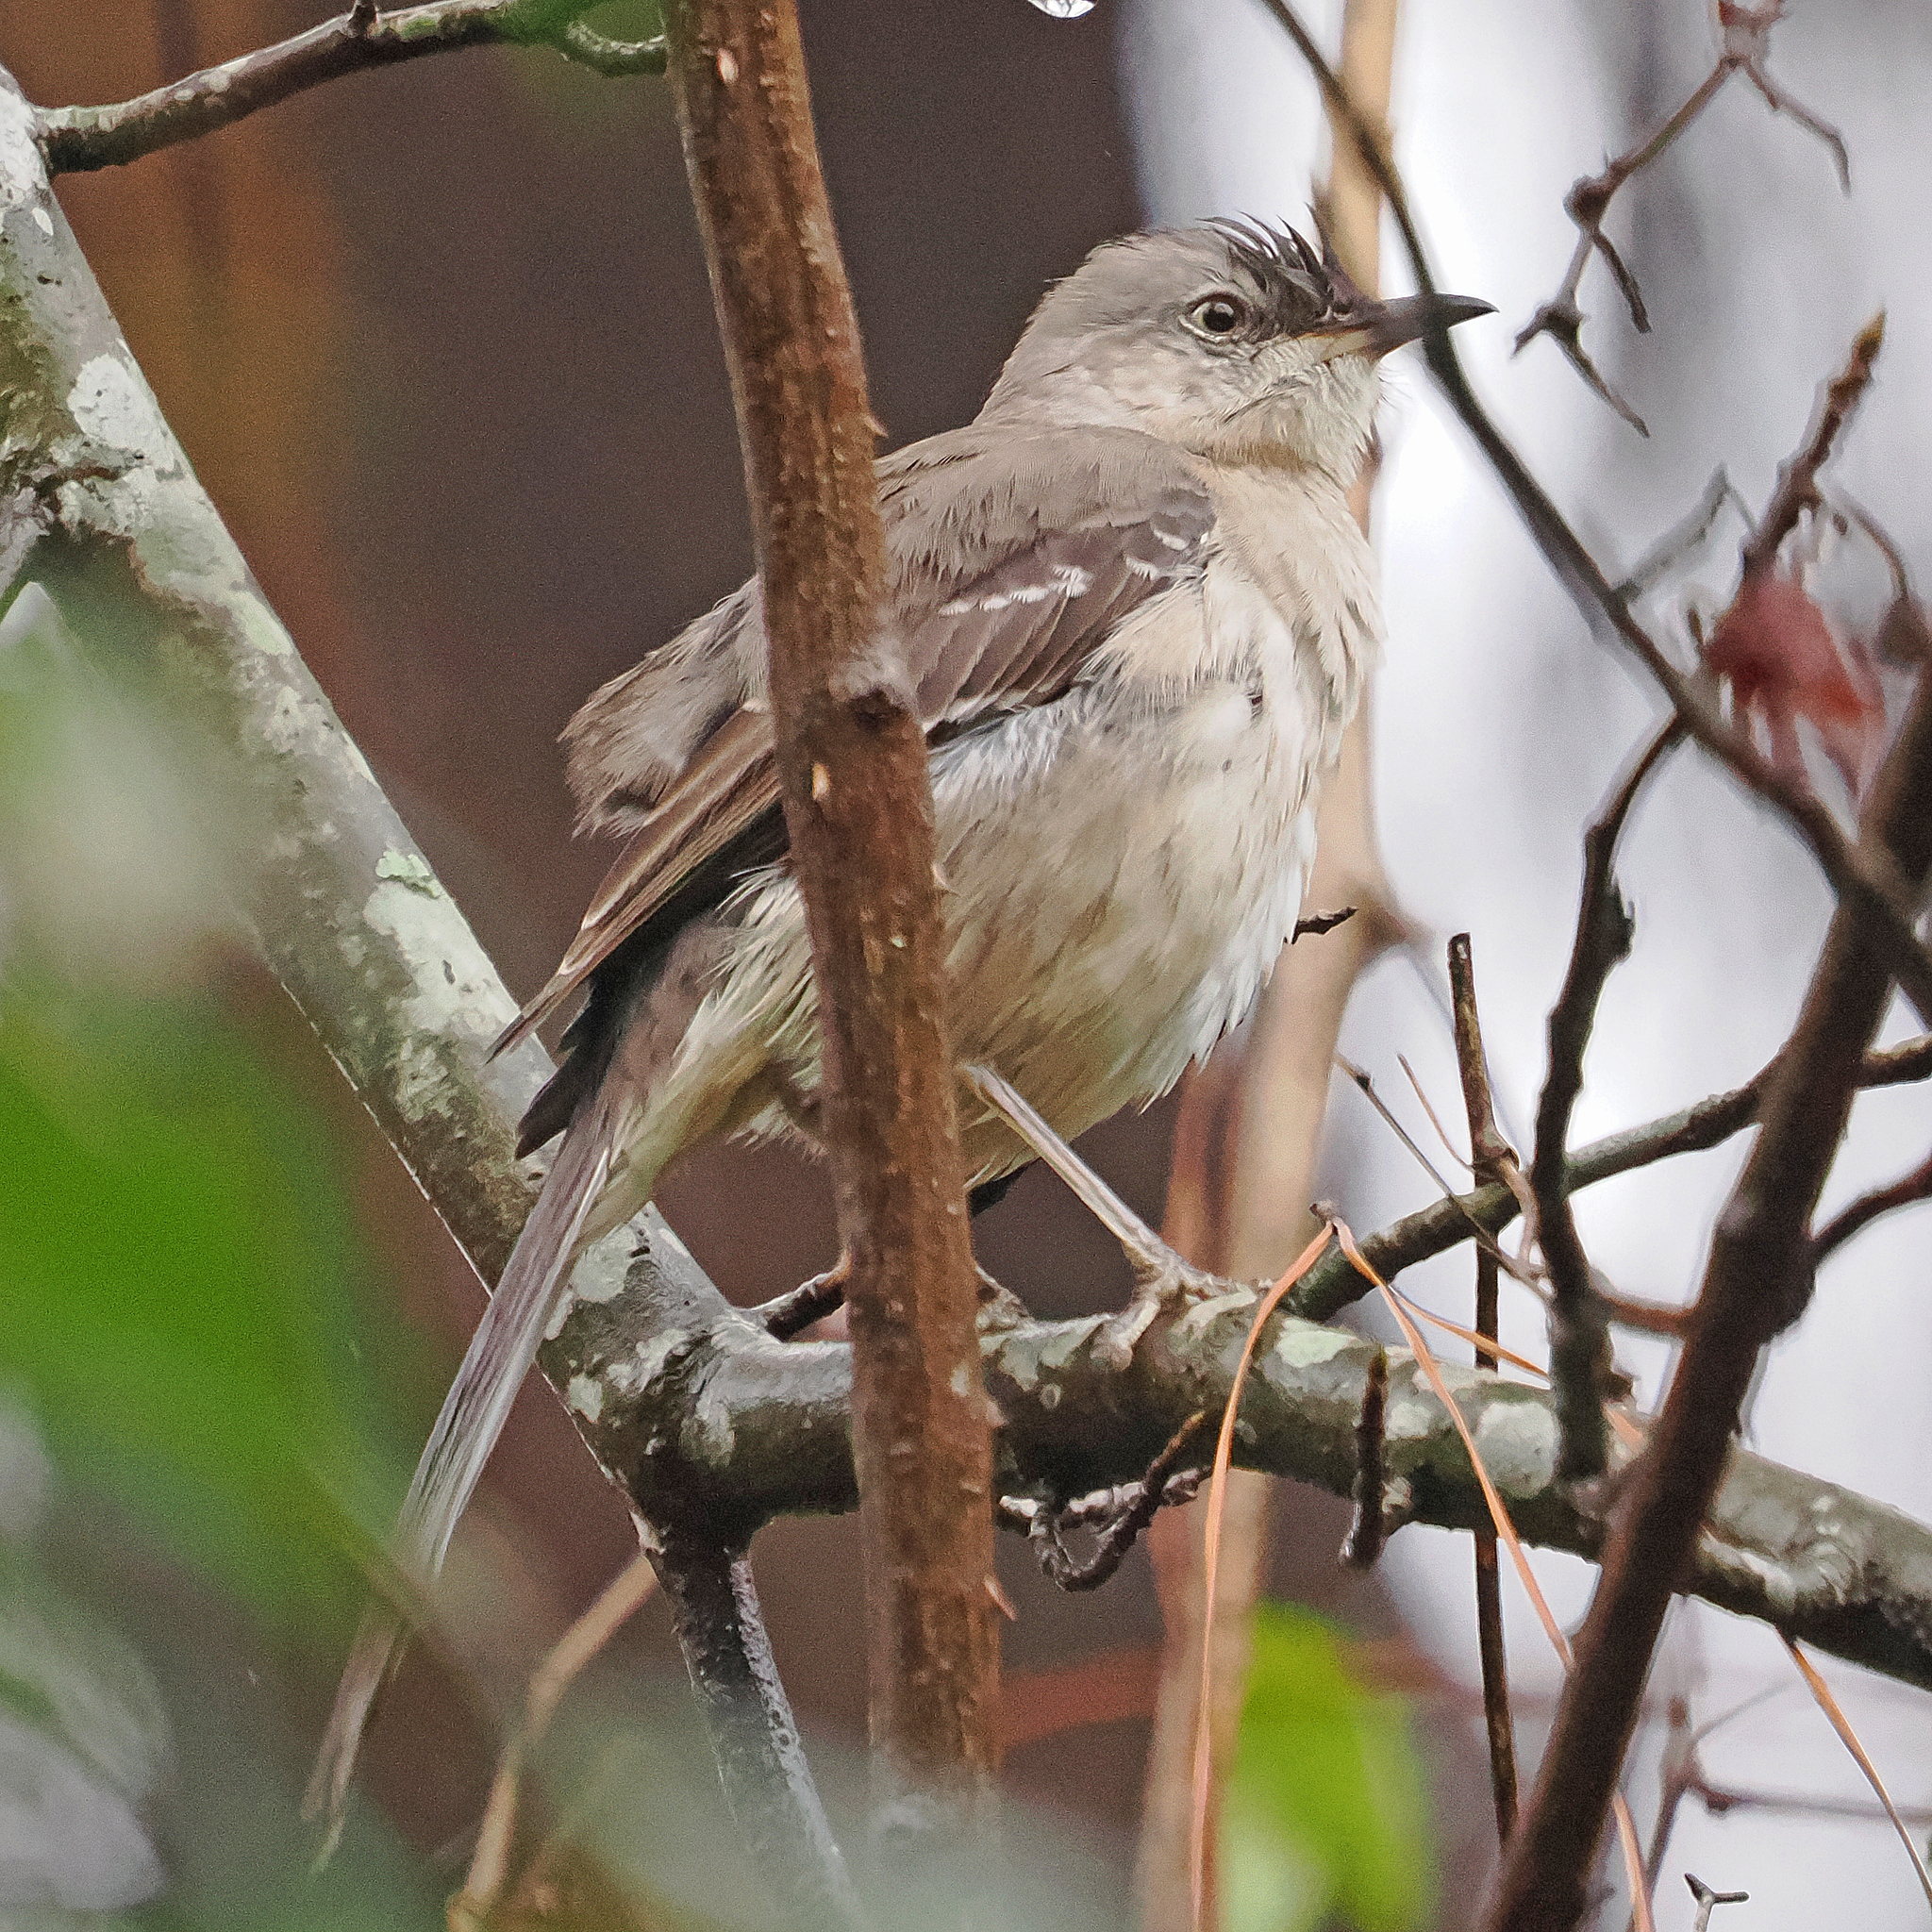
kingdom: Animalia
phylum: Chordata
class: Aves
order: Passeriformes
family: Mimidae
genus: Mimus
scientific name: Mimus polyglottos
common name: Northern mockingbird
